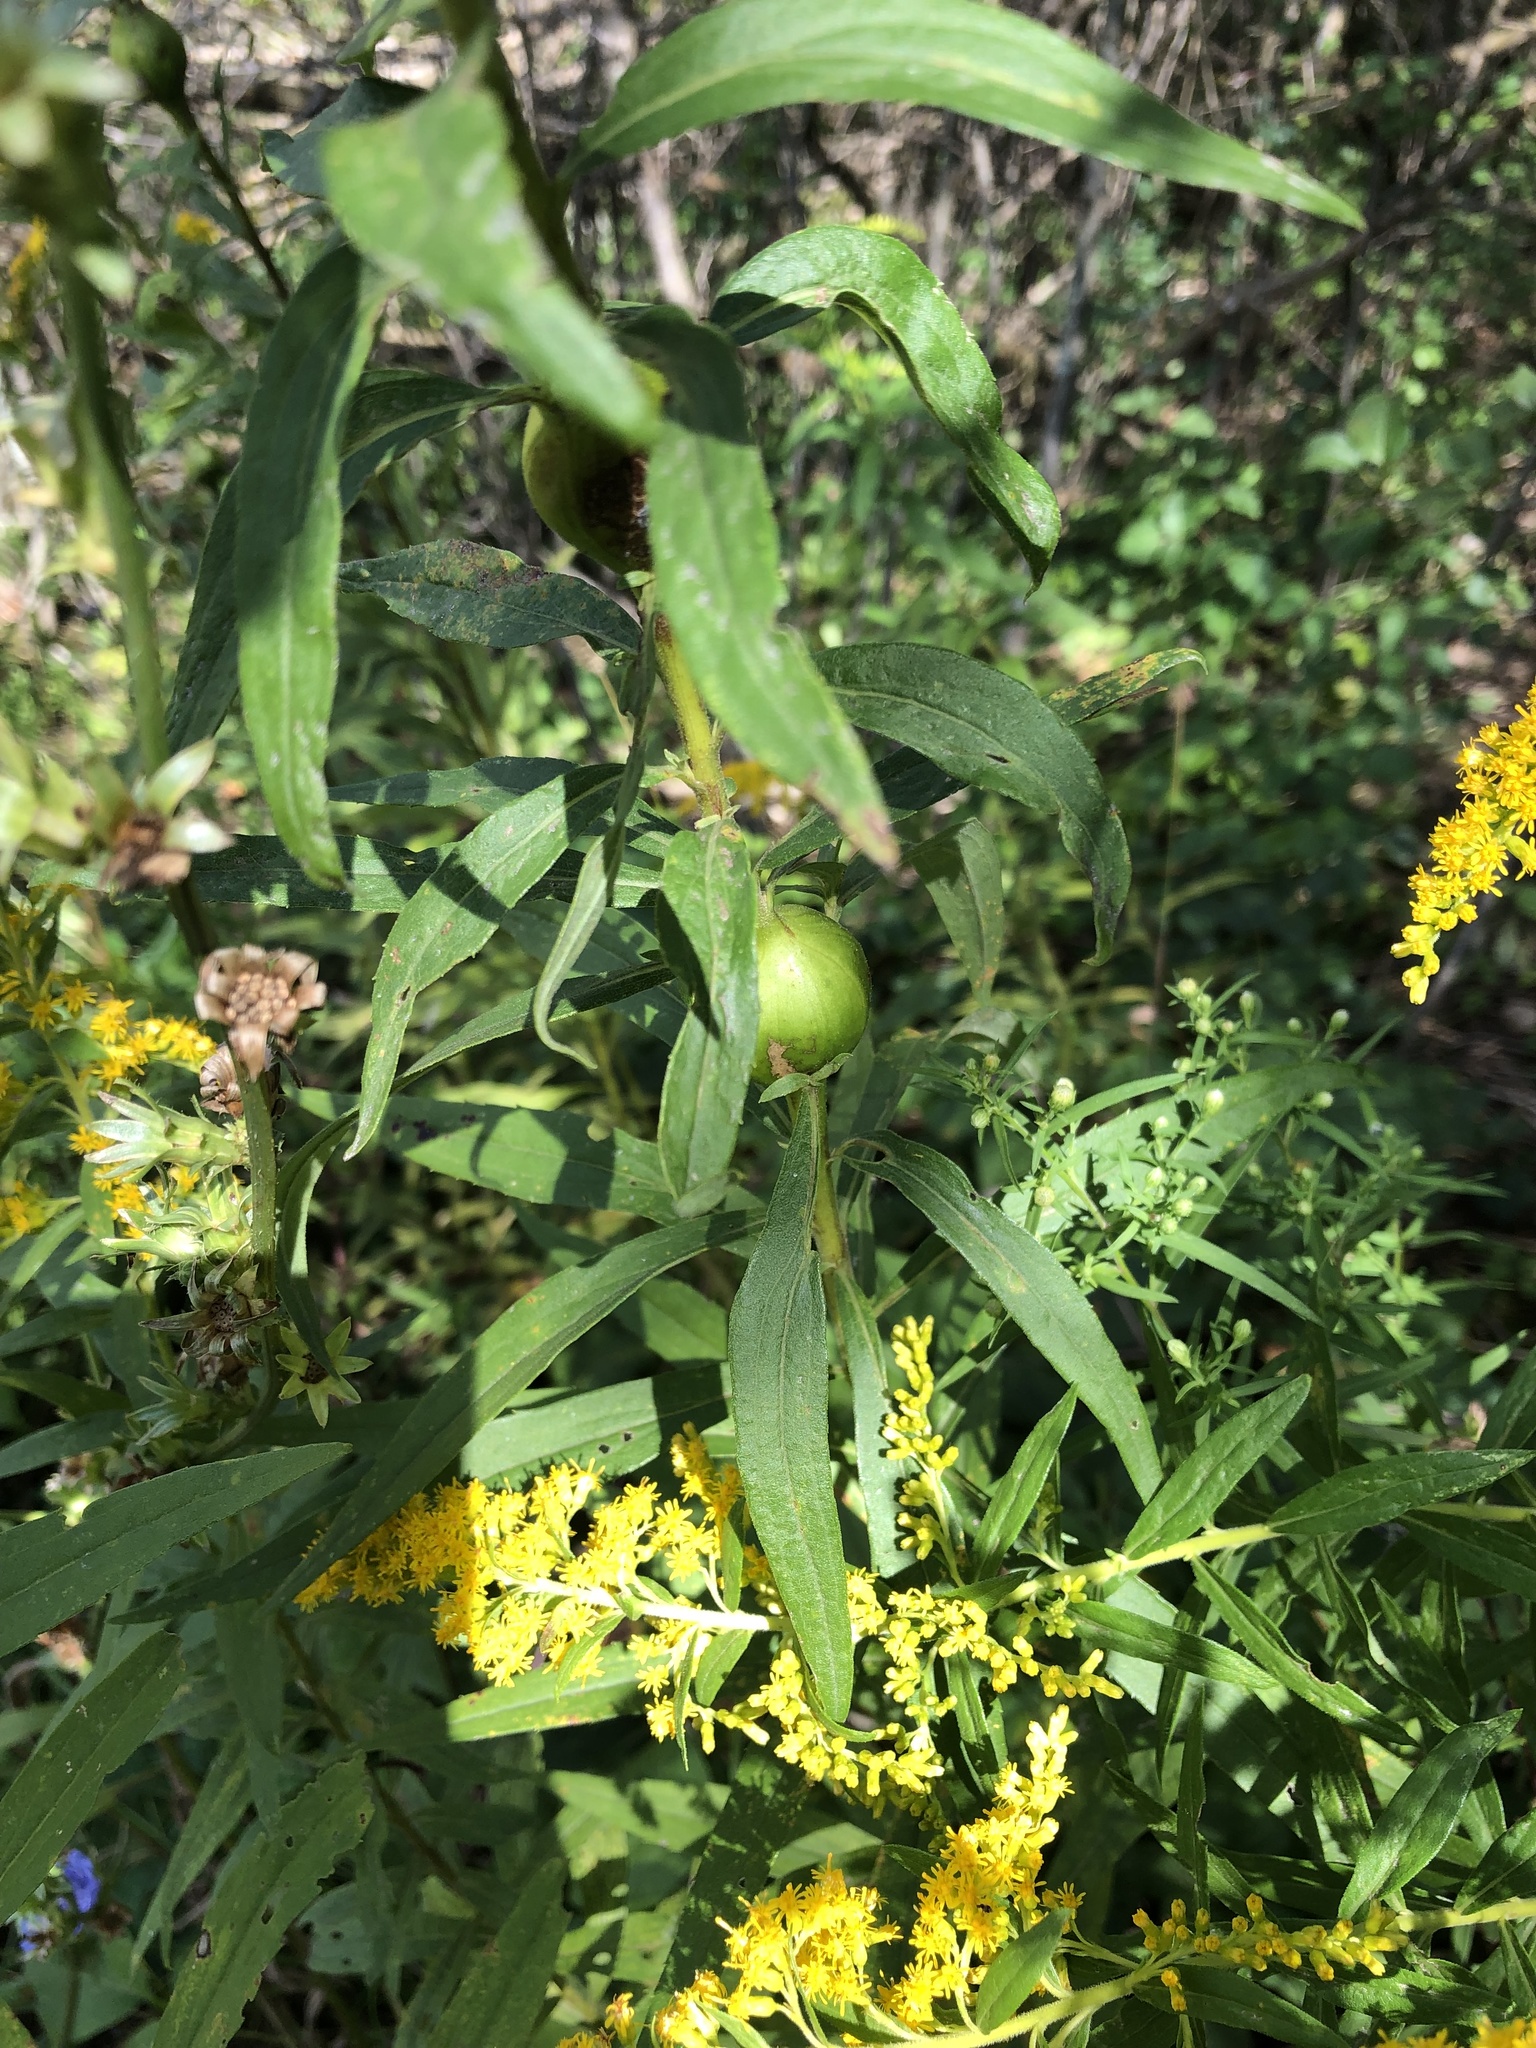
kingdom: Animalia
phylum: Arthropoda
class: Insecta
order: Diptera
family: Tephritidae
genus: Eurosta
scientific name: Eurosta solidaginis
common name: Goldenrod gall fly
